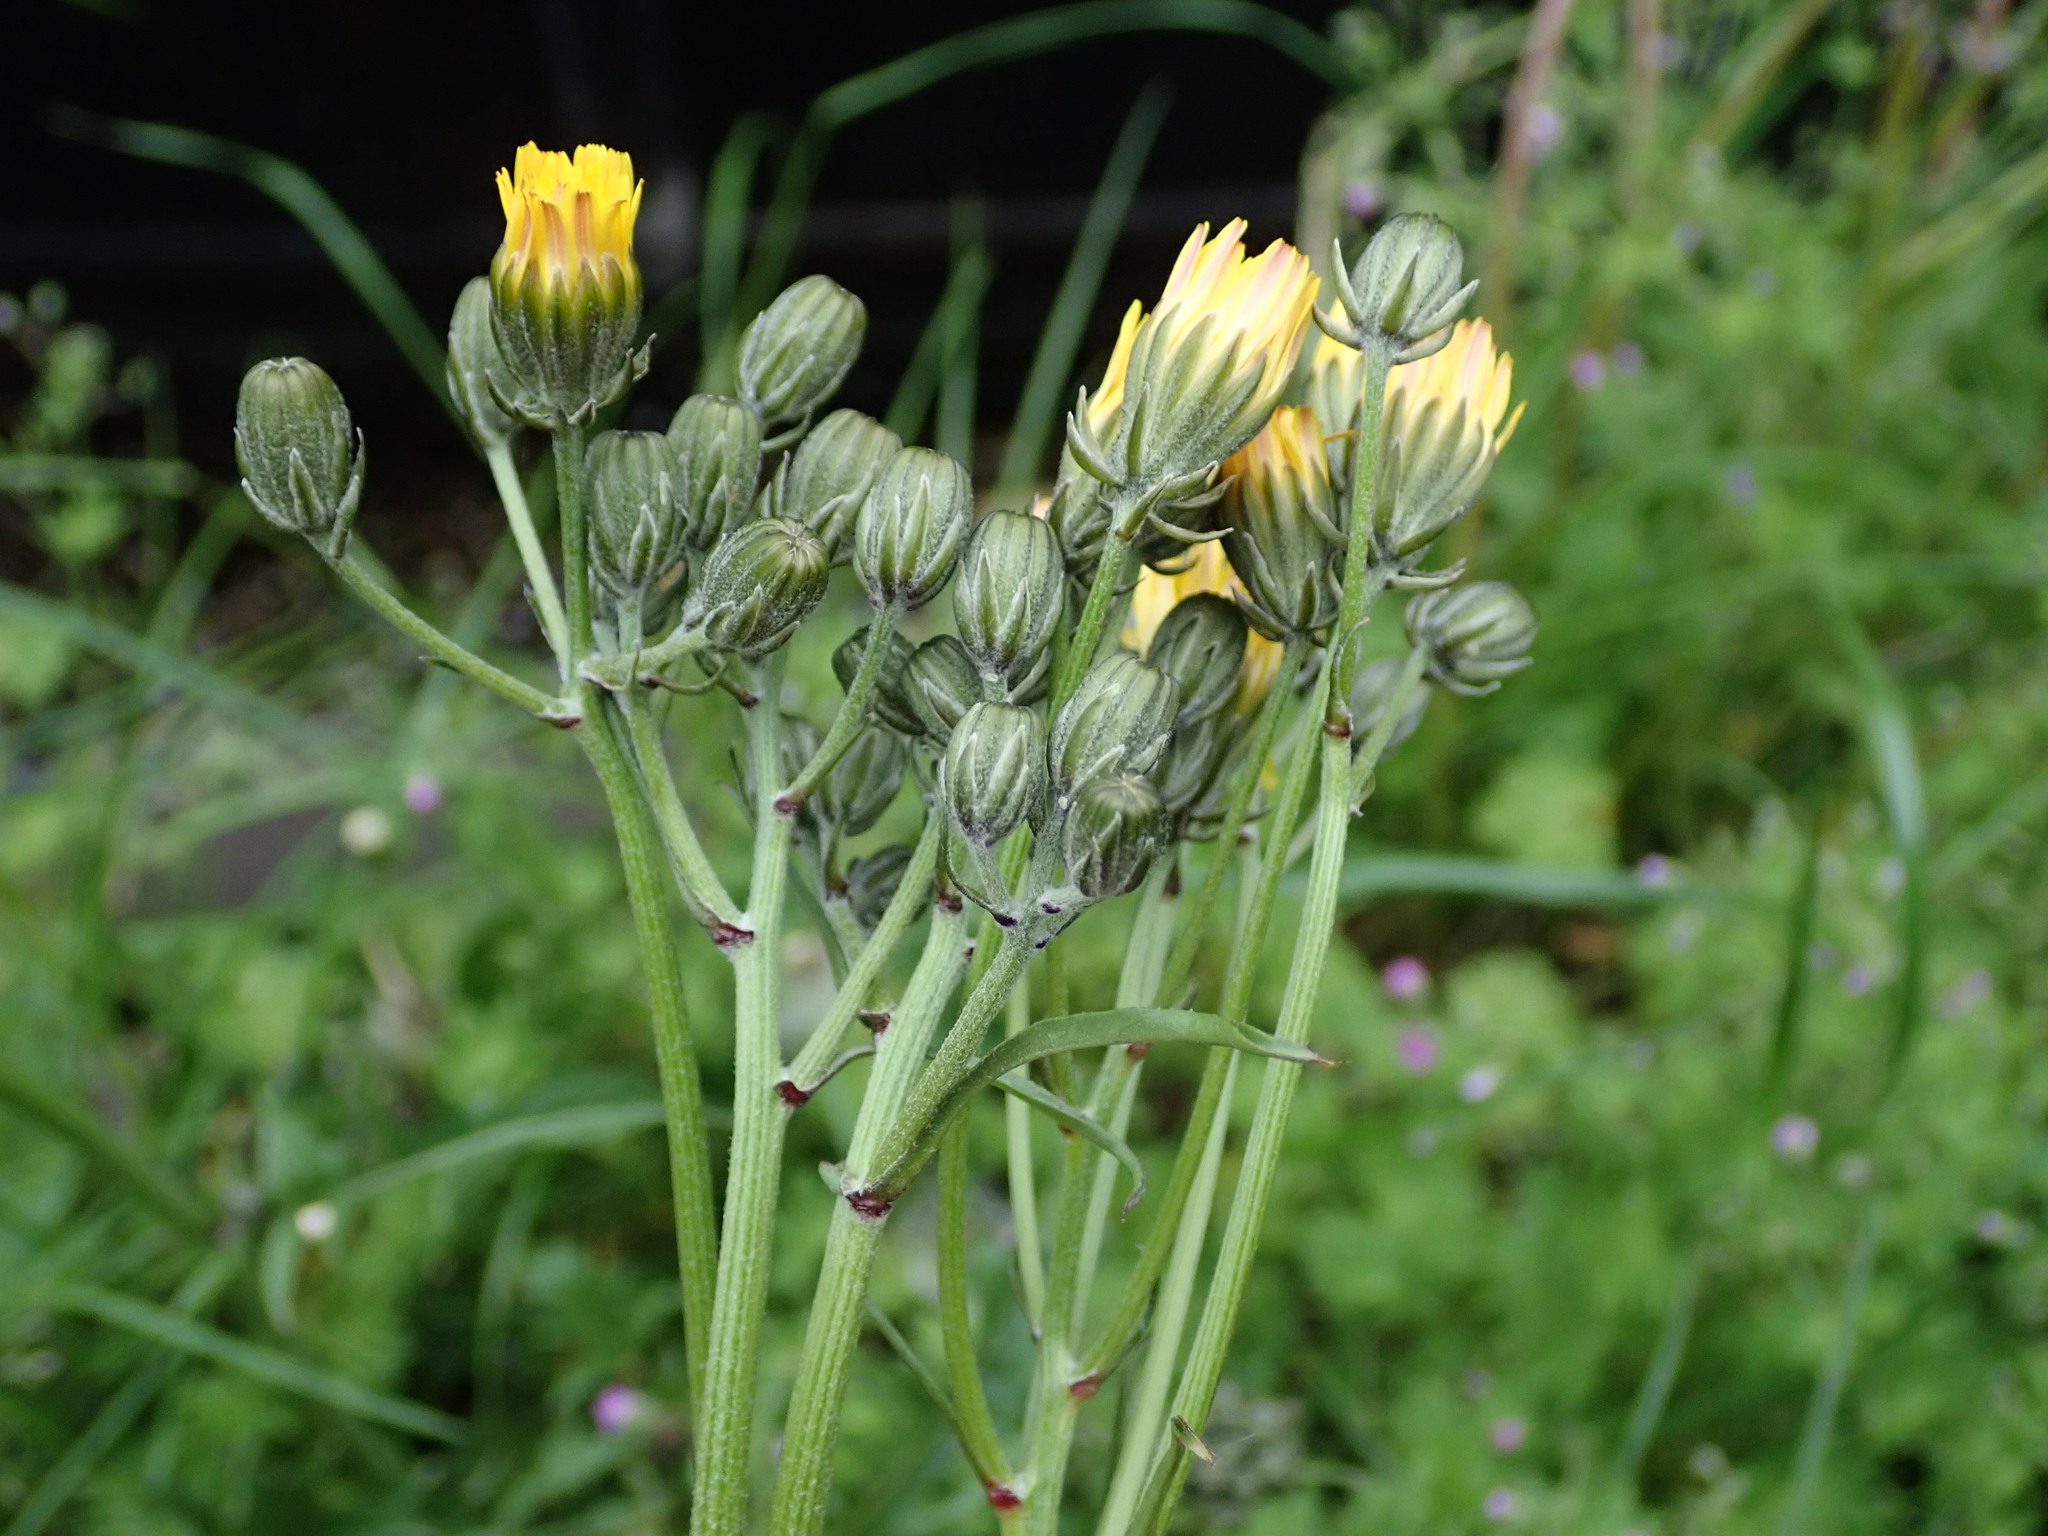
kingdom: Plantae
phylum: Tracheophyta
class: Magnoliopsida
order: Asterales
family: Asteraceae
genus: Crepis
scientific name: Crepis vesicaria
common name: Beaked hawksbeard
